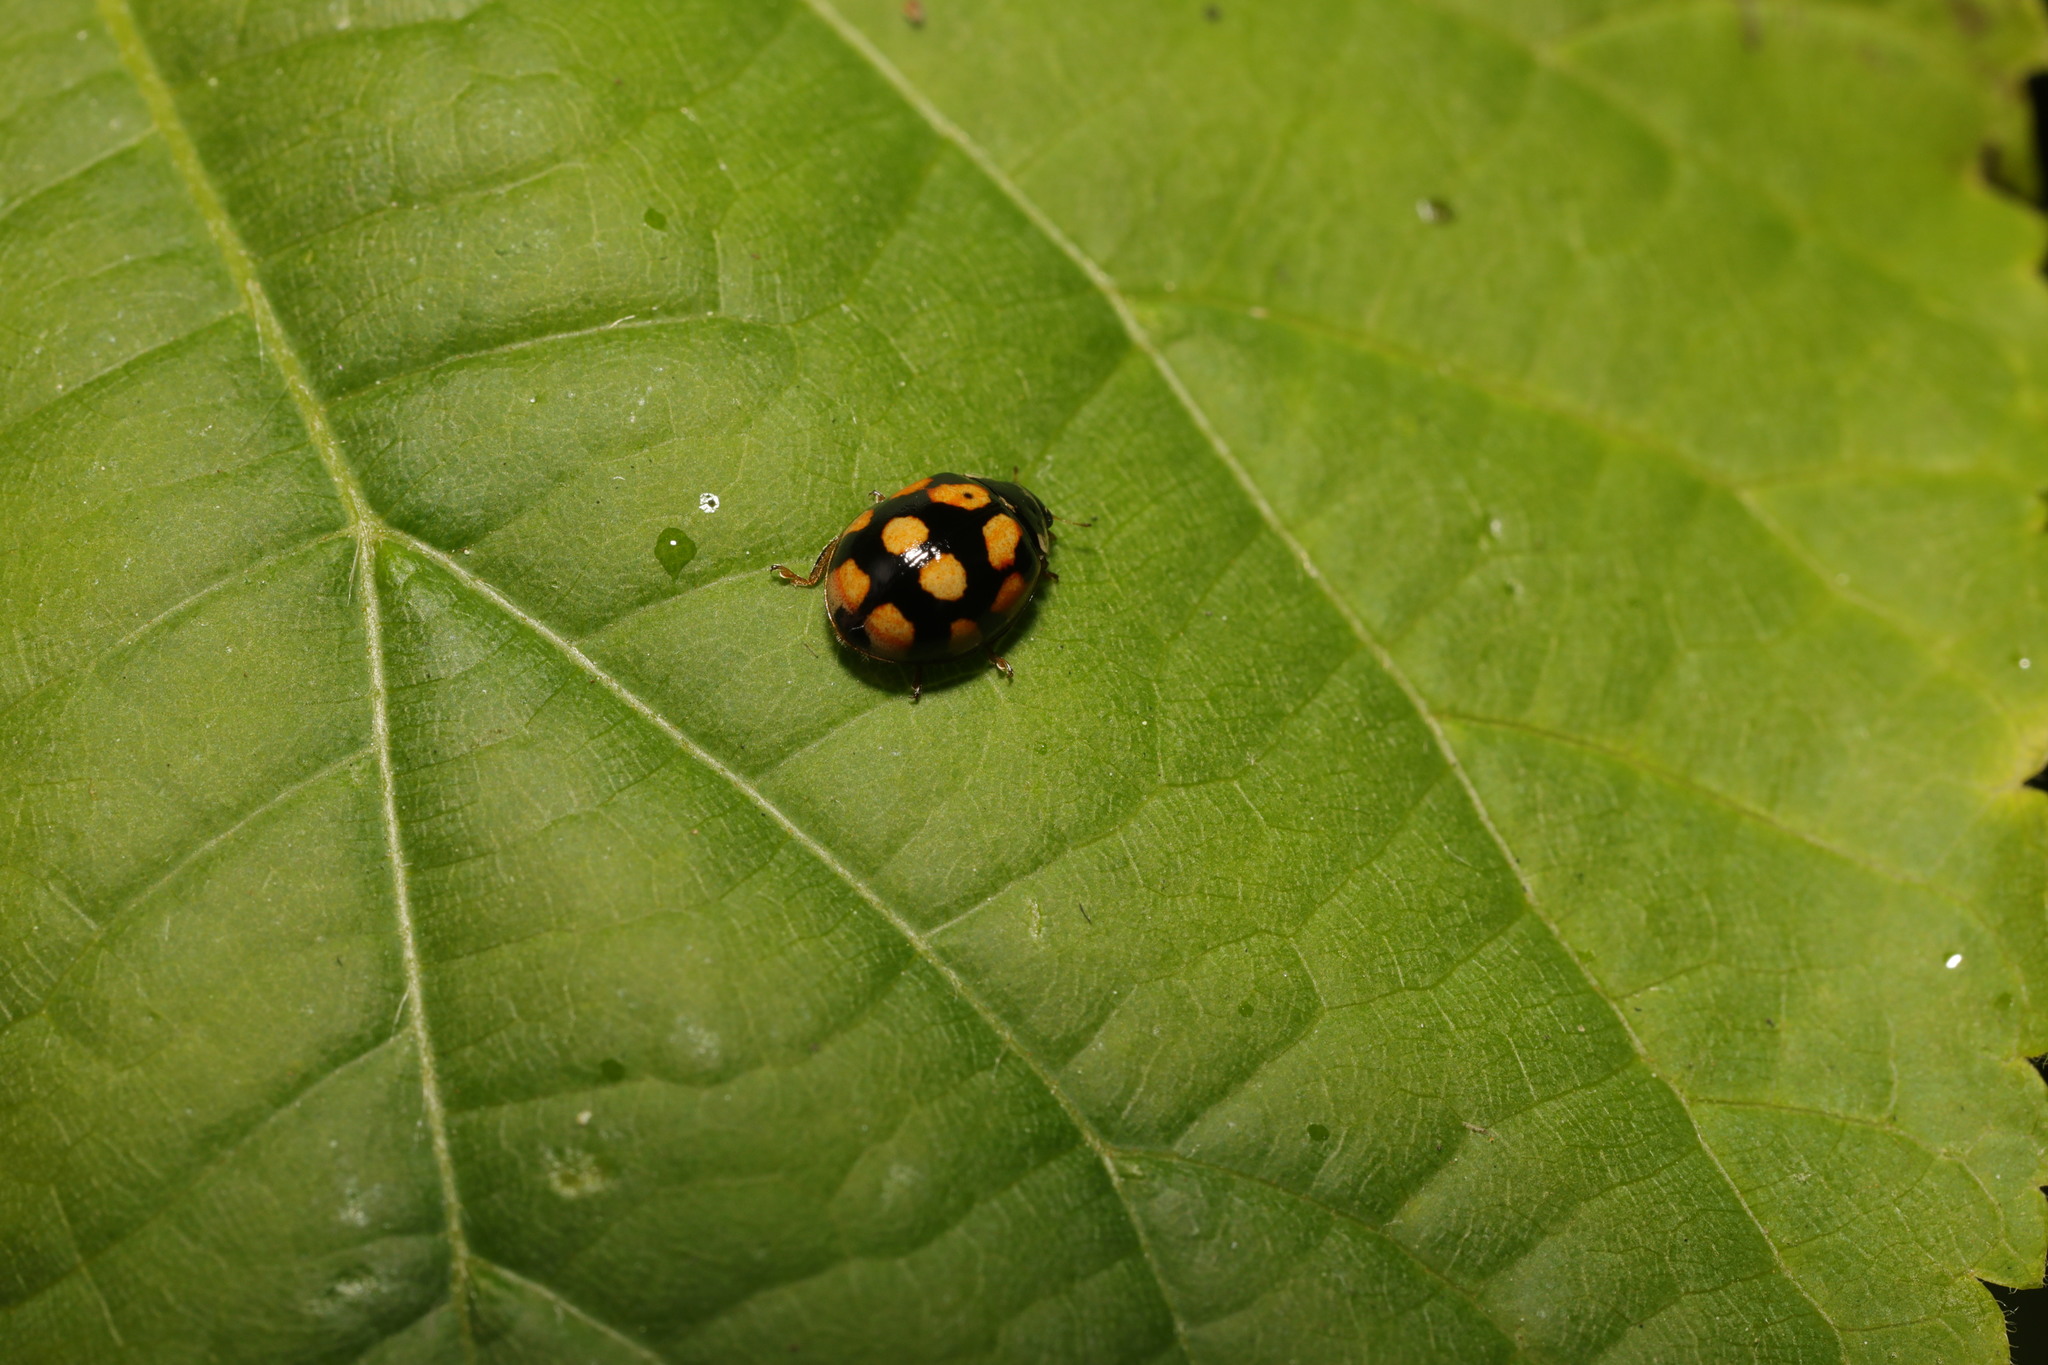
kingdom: Animalia
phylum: Arthropoda
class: Insecta
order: Coleoptera
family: Coccinellidae
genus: Adalia
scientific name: Adalia decempunctata
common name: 10-spot ladybird
